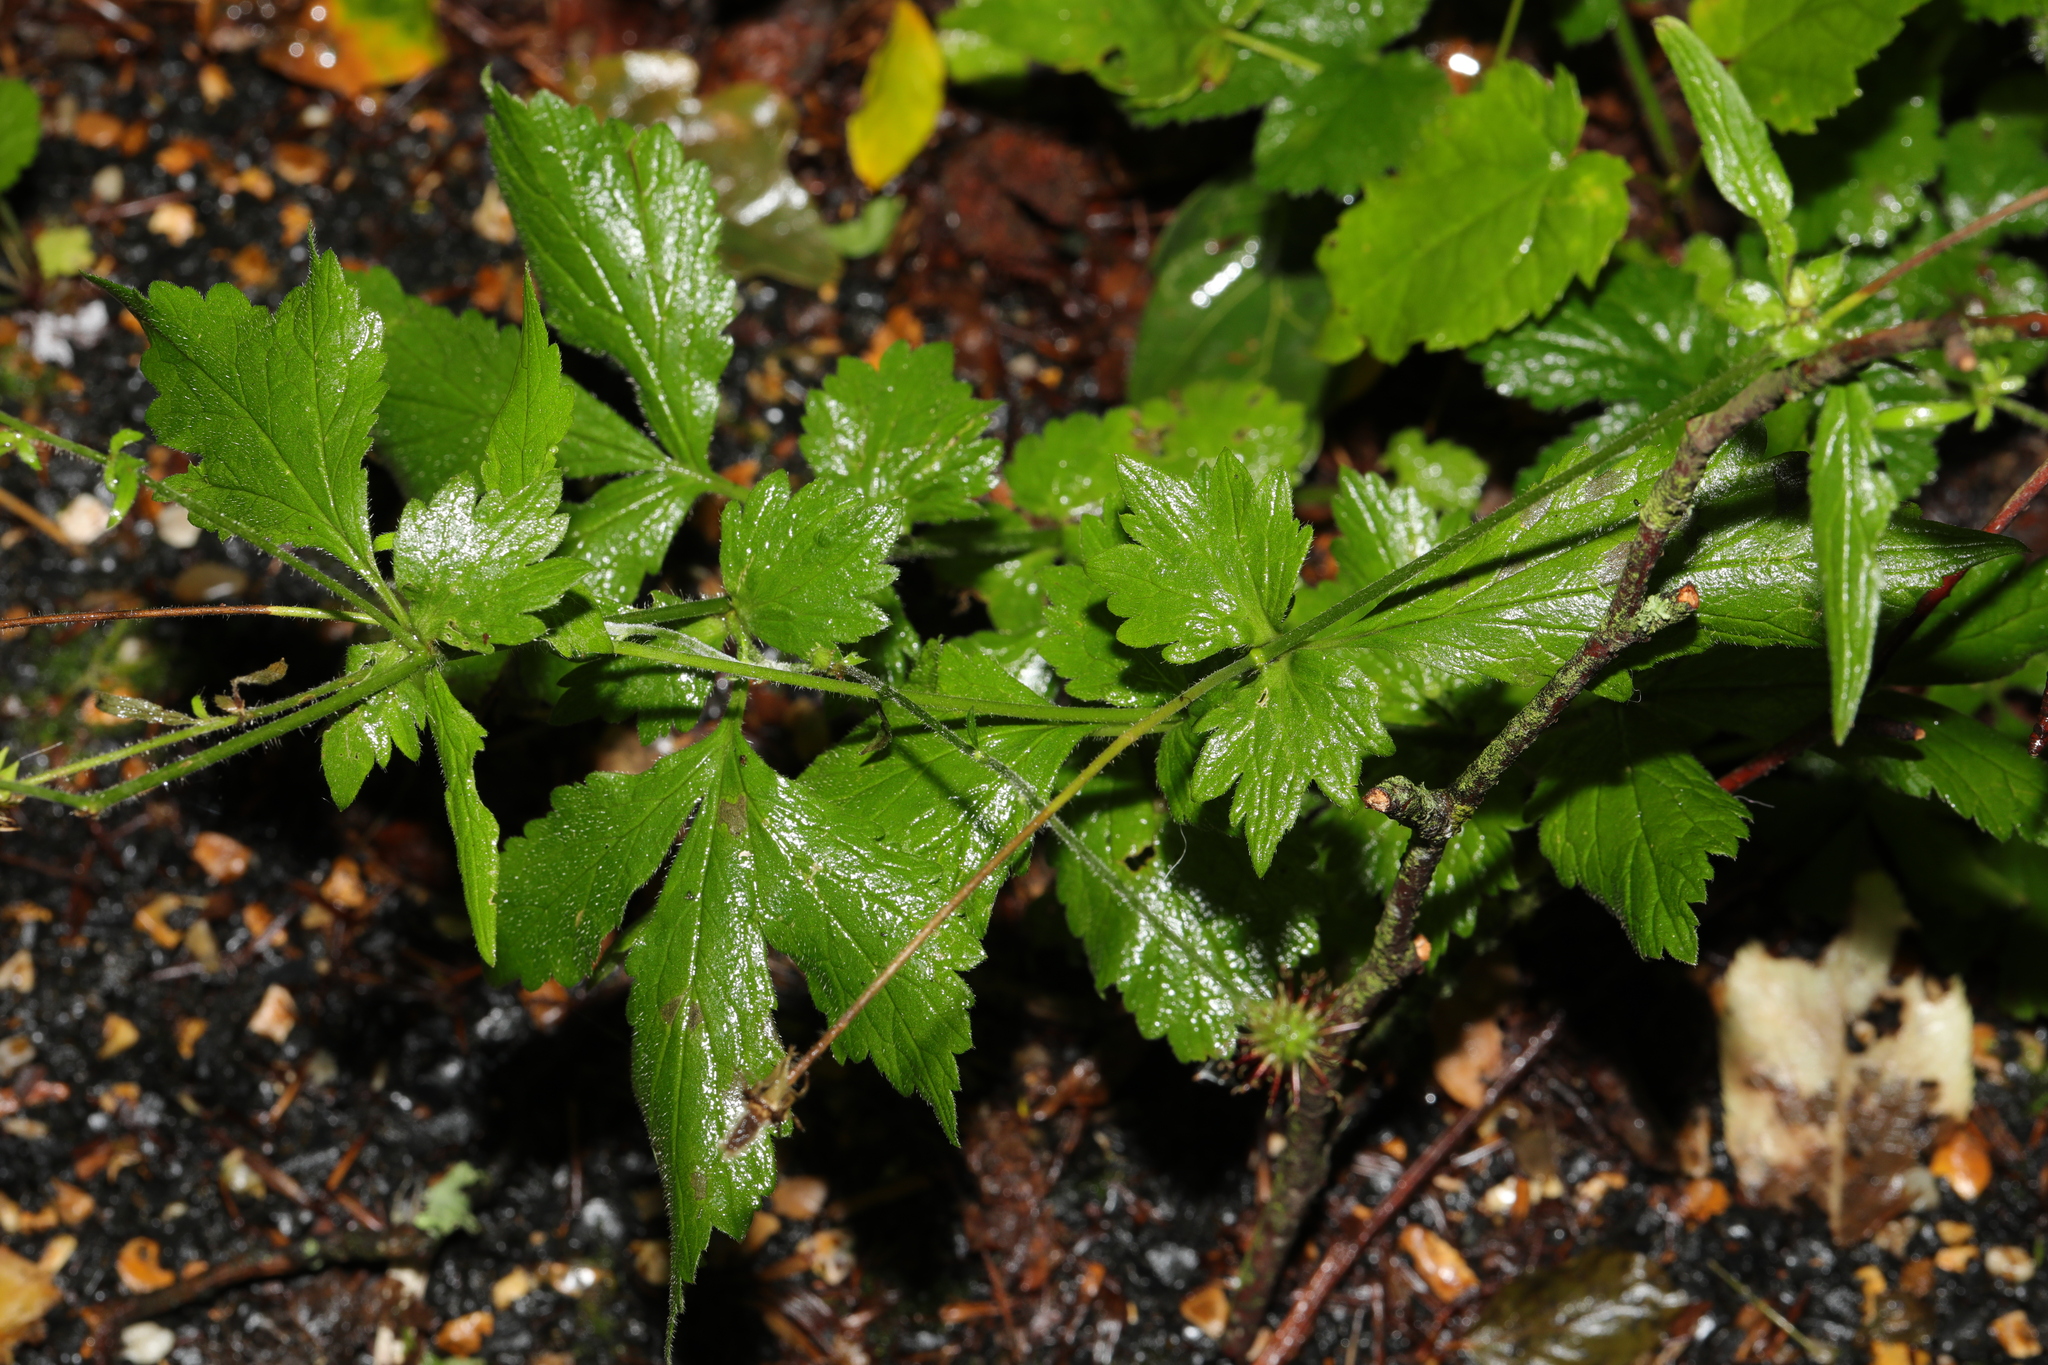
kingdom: Plantae
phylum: Tracheophyta
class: Magnoliopsida
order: Rosales
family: Rosaceae
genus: Geum
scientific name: Geum urbanum
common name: Wood avens
